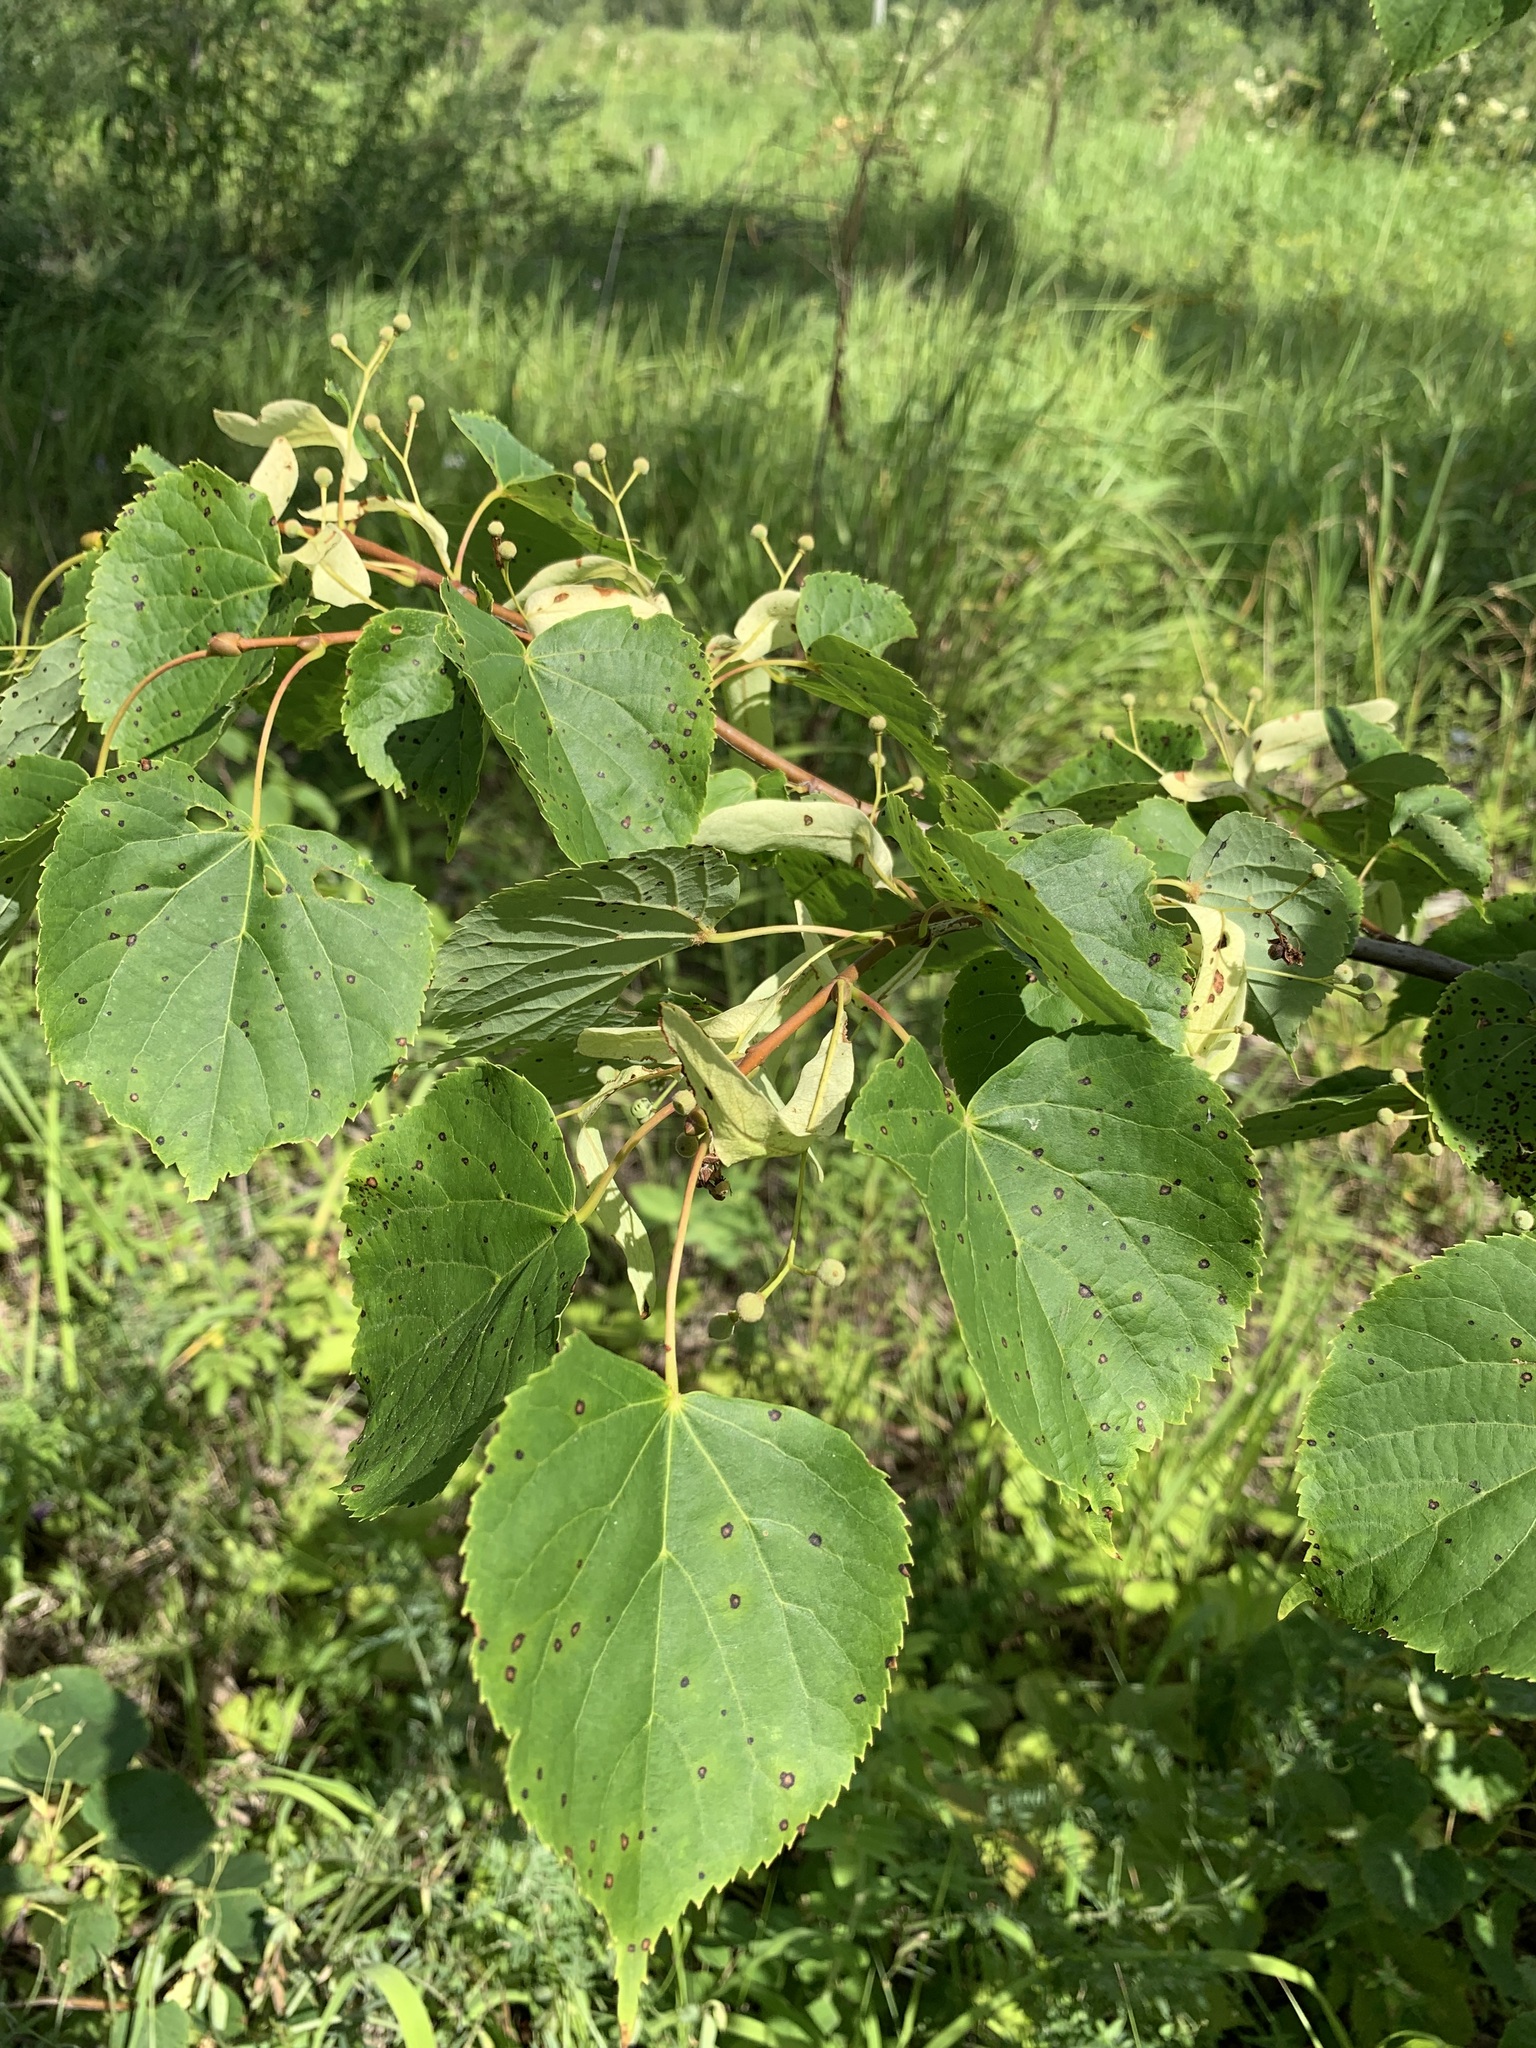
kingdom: Plantae
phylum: Tracheophyta
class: Magnoliopsida
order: Malvales
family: Malvaceae
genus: Tilia
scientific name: Tilia cordata
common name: Small-leaved lime
